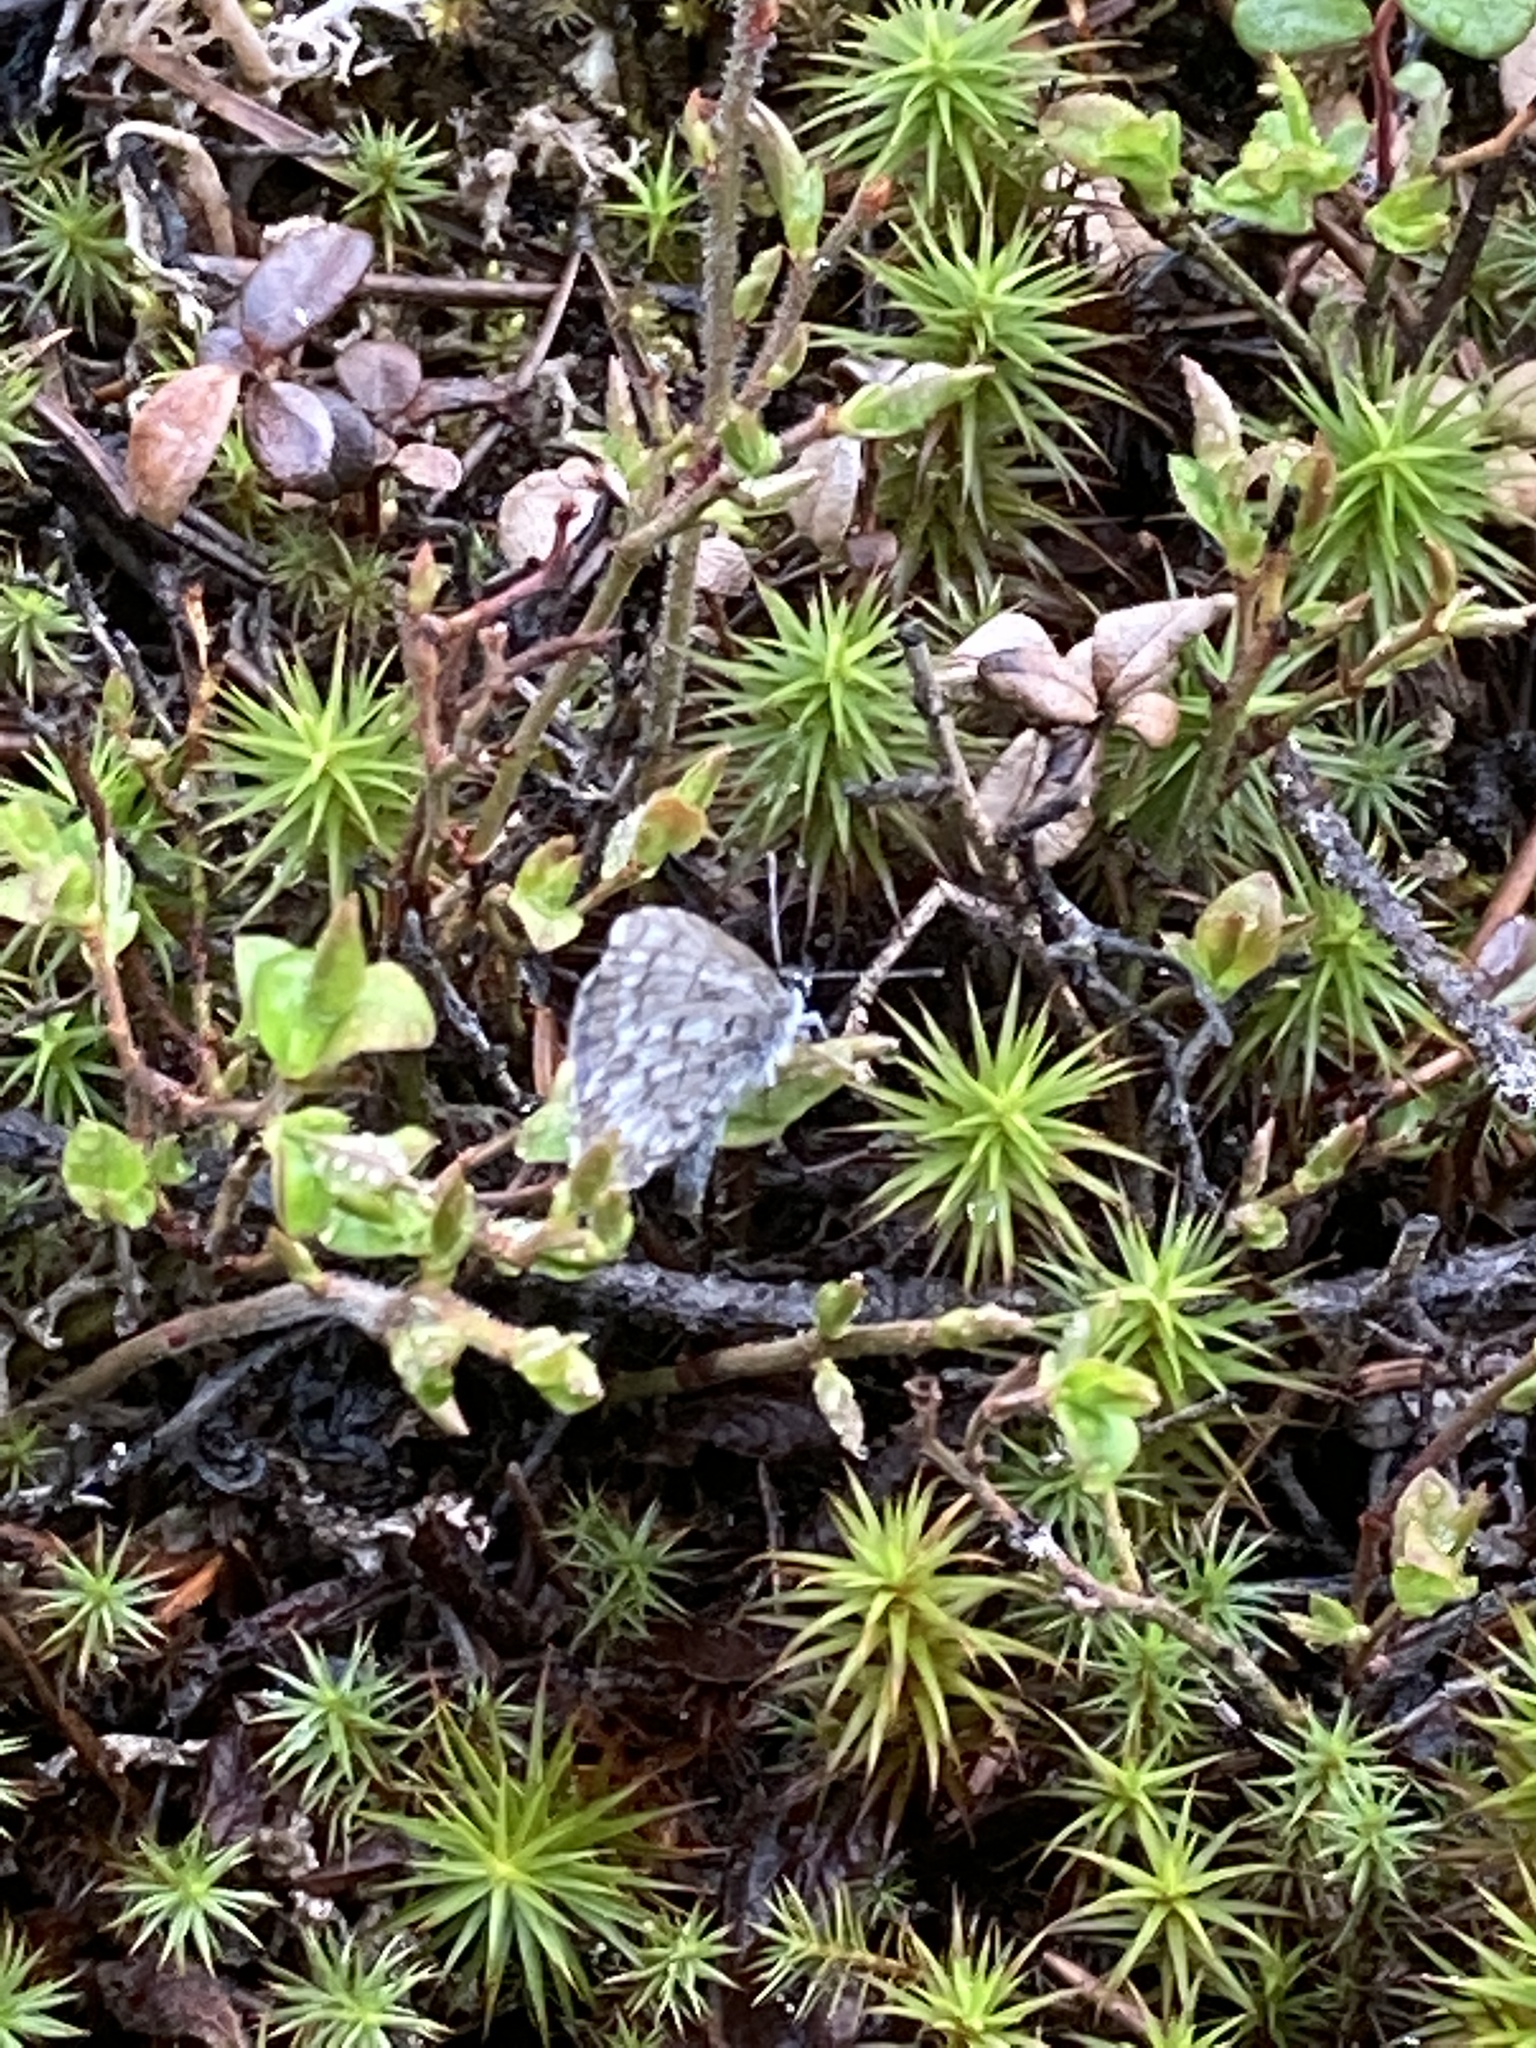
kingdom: Animalia
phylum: Arthropoda
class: Insecta
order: Lepidoptera
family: Lycaenidae
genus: Celastrina
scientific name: Celastrina lucia
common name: Lucia azure
